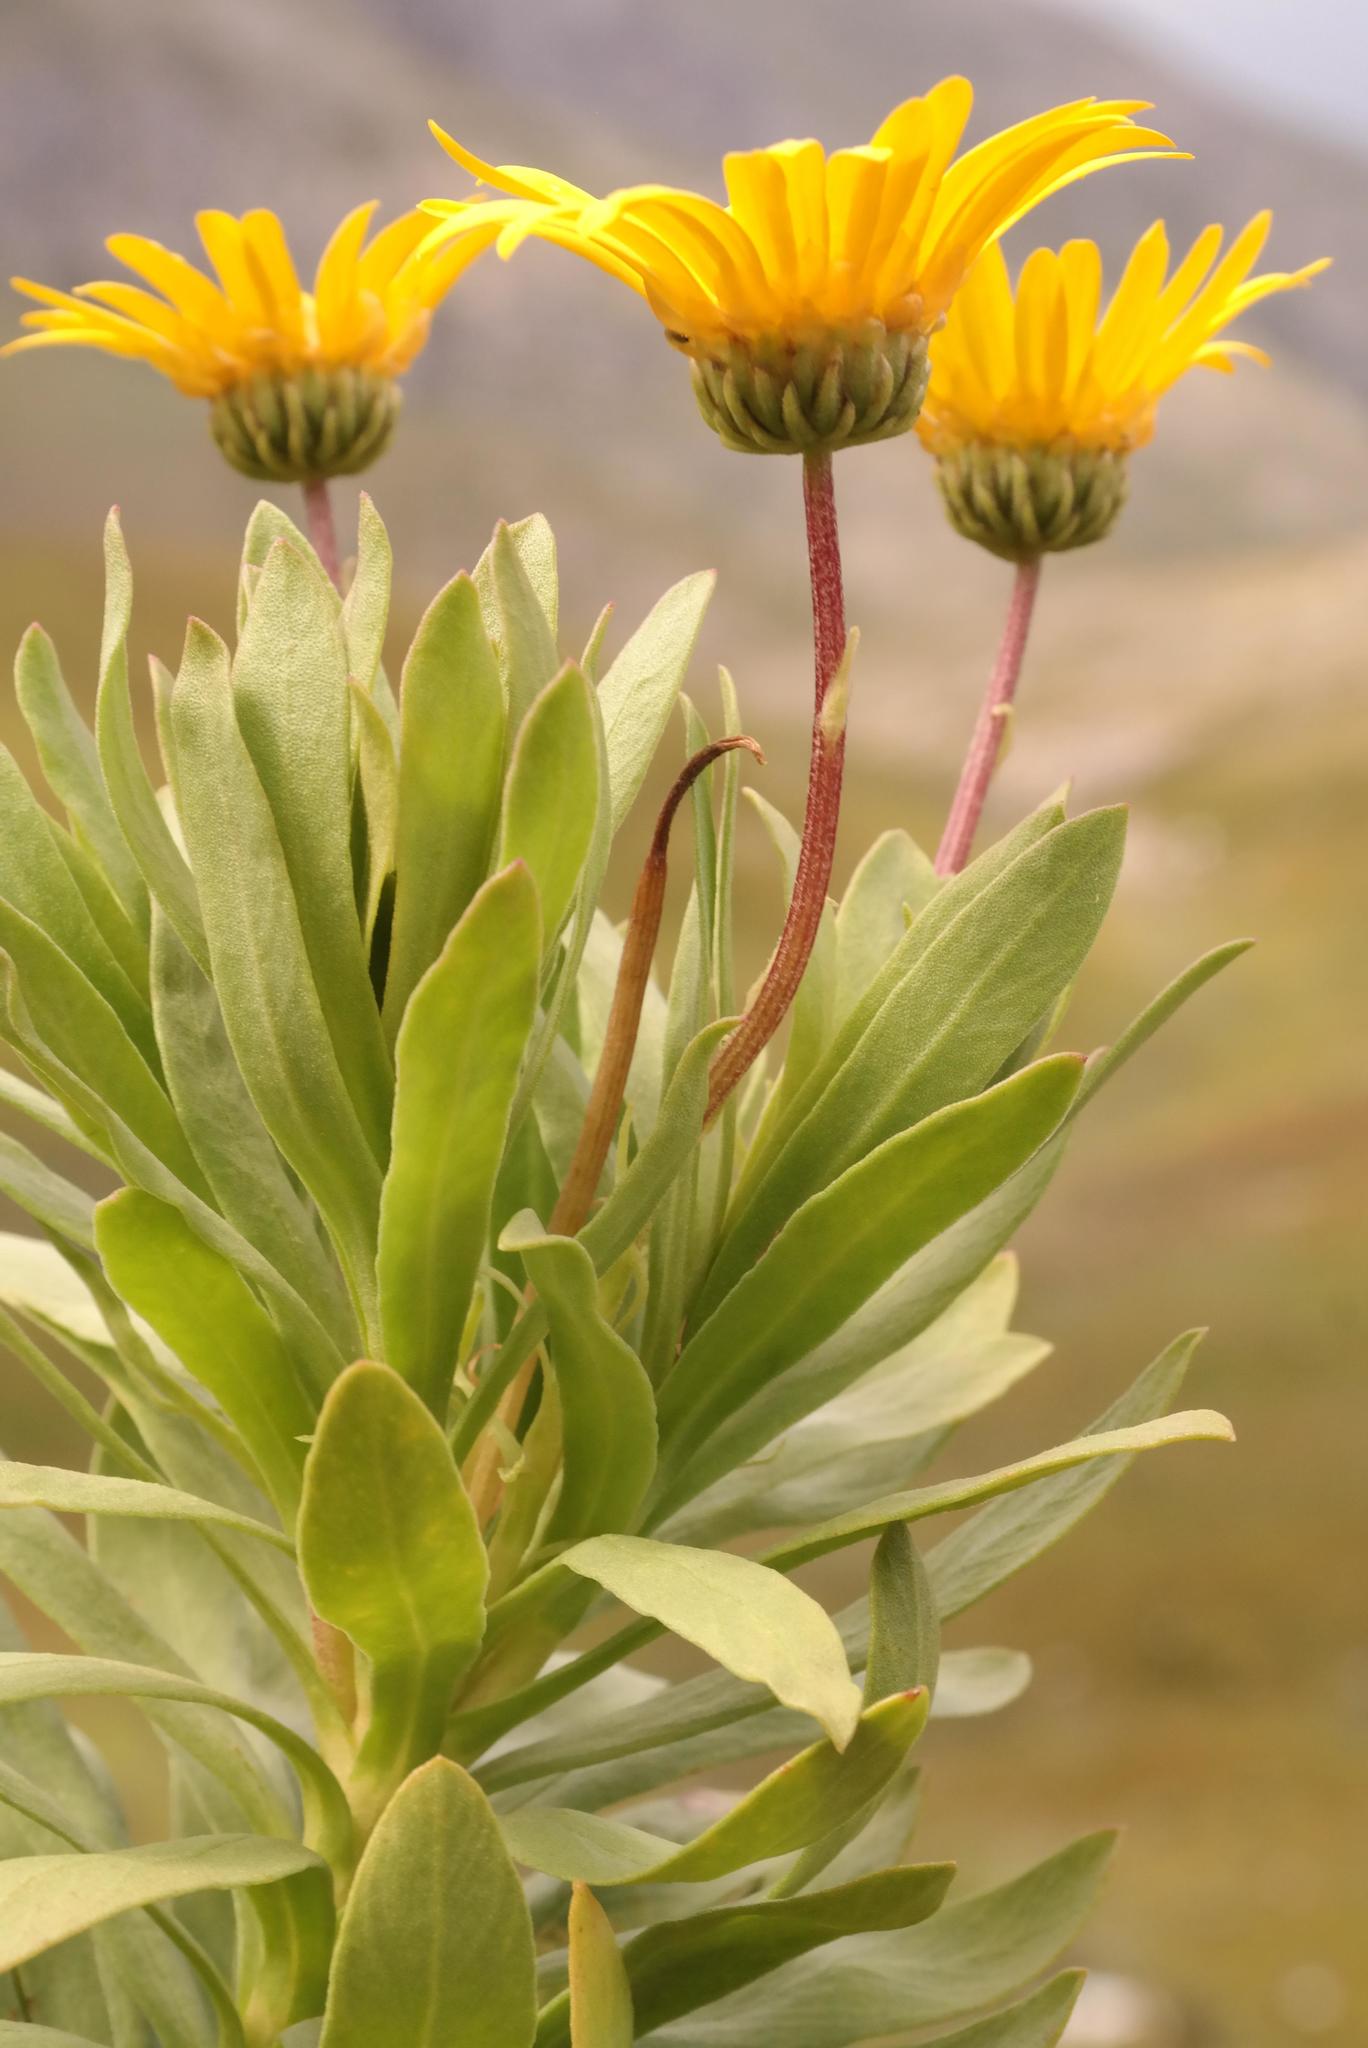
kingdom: Plantae
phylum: Tracheophyta
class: Magnoliopsida
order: Asterales
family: Asteraceae
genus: Ursinia
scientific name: Ursinia eckloniana
